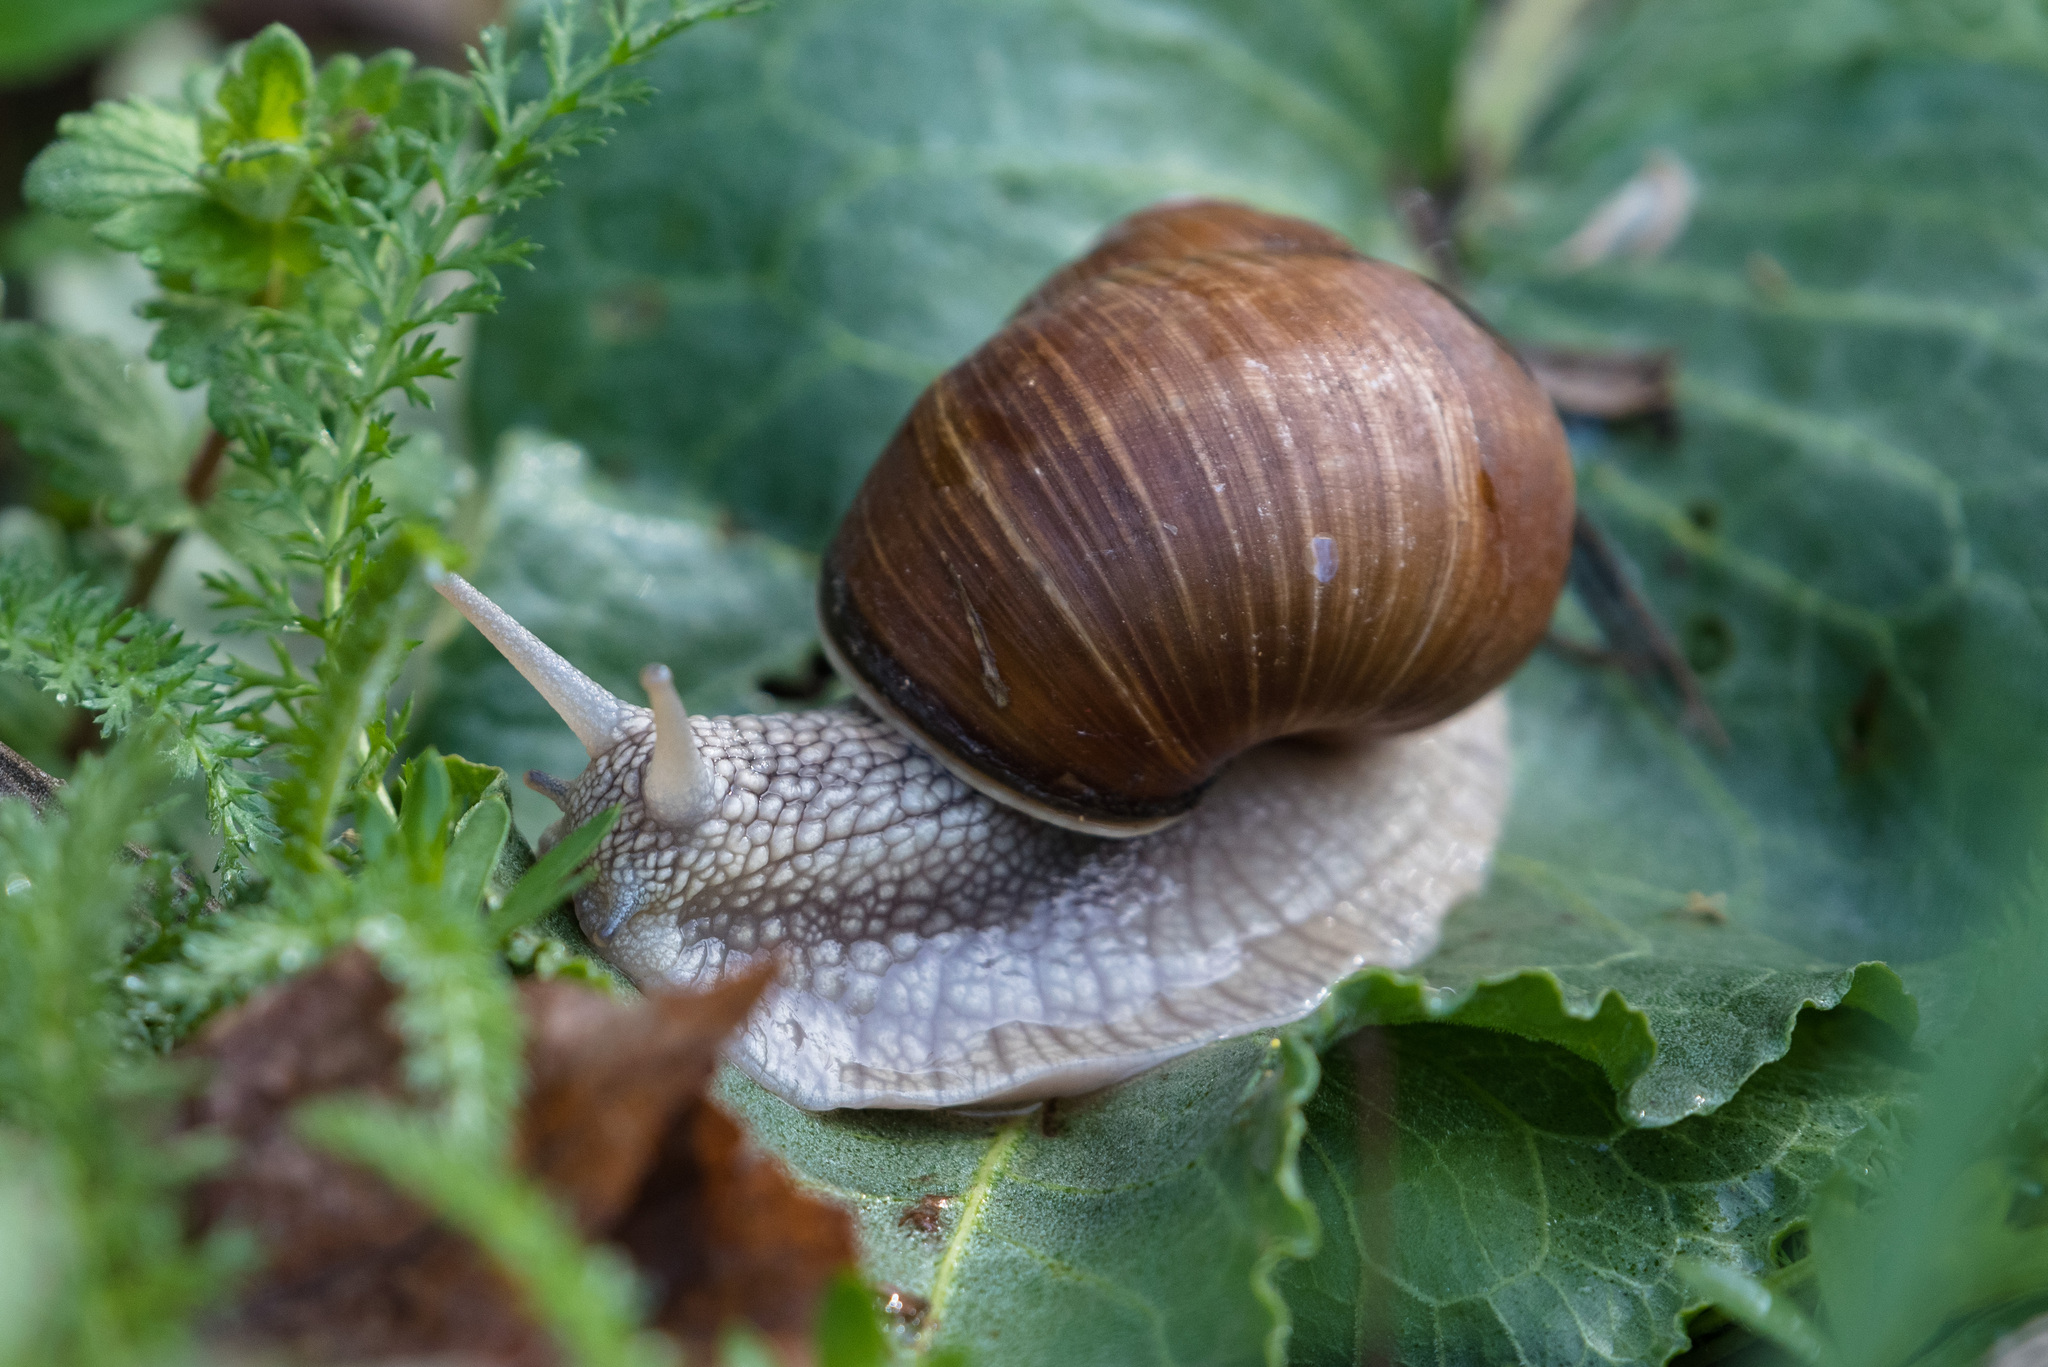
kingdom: Animalia
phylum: Mollusca
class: Gastropoda
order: Stylommatophora
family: Helicidae
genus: Helix
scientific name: Helix pomatia
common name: Roman snail
